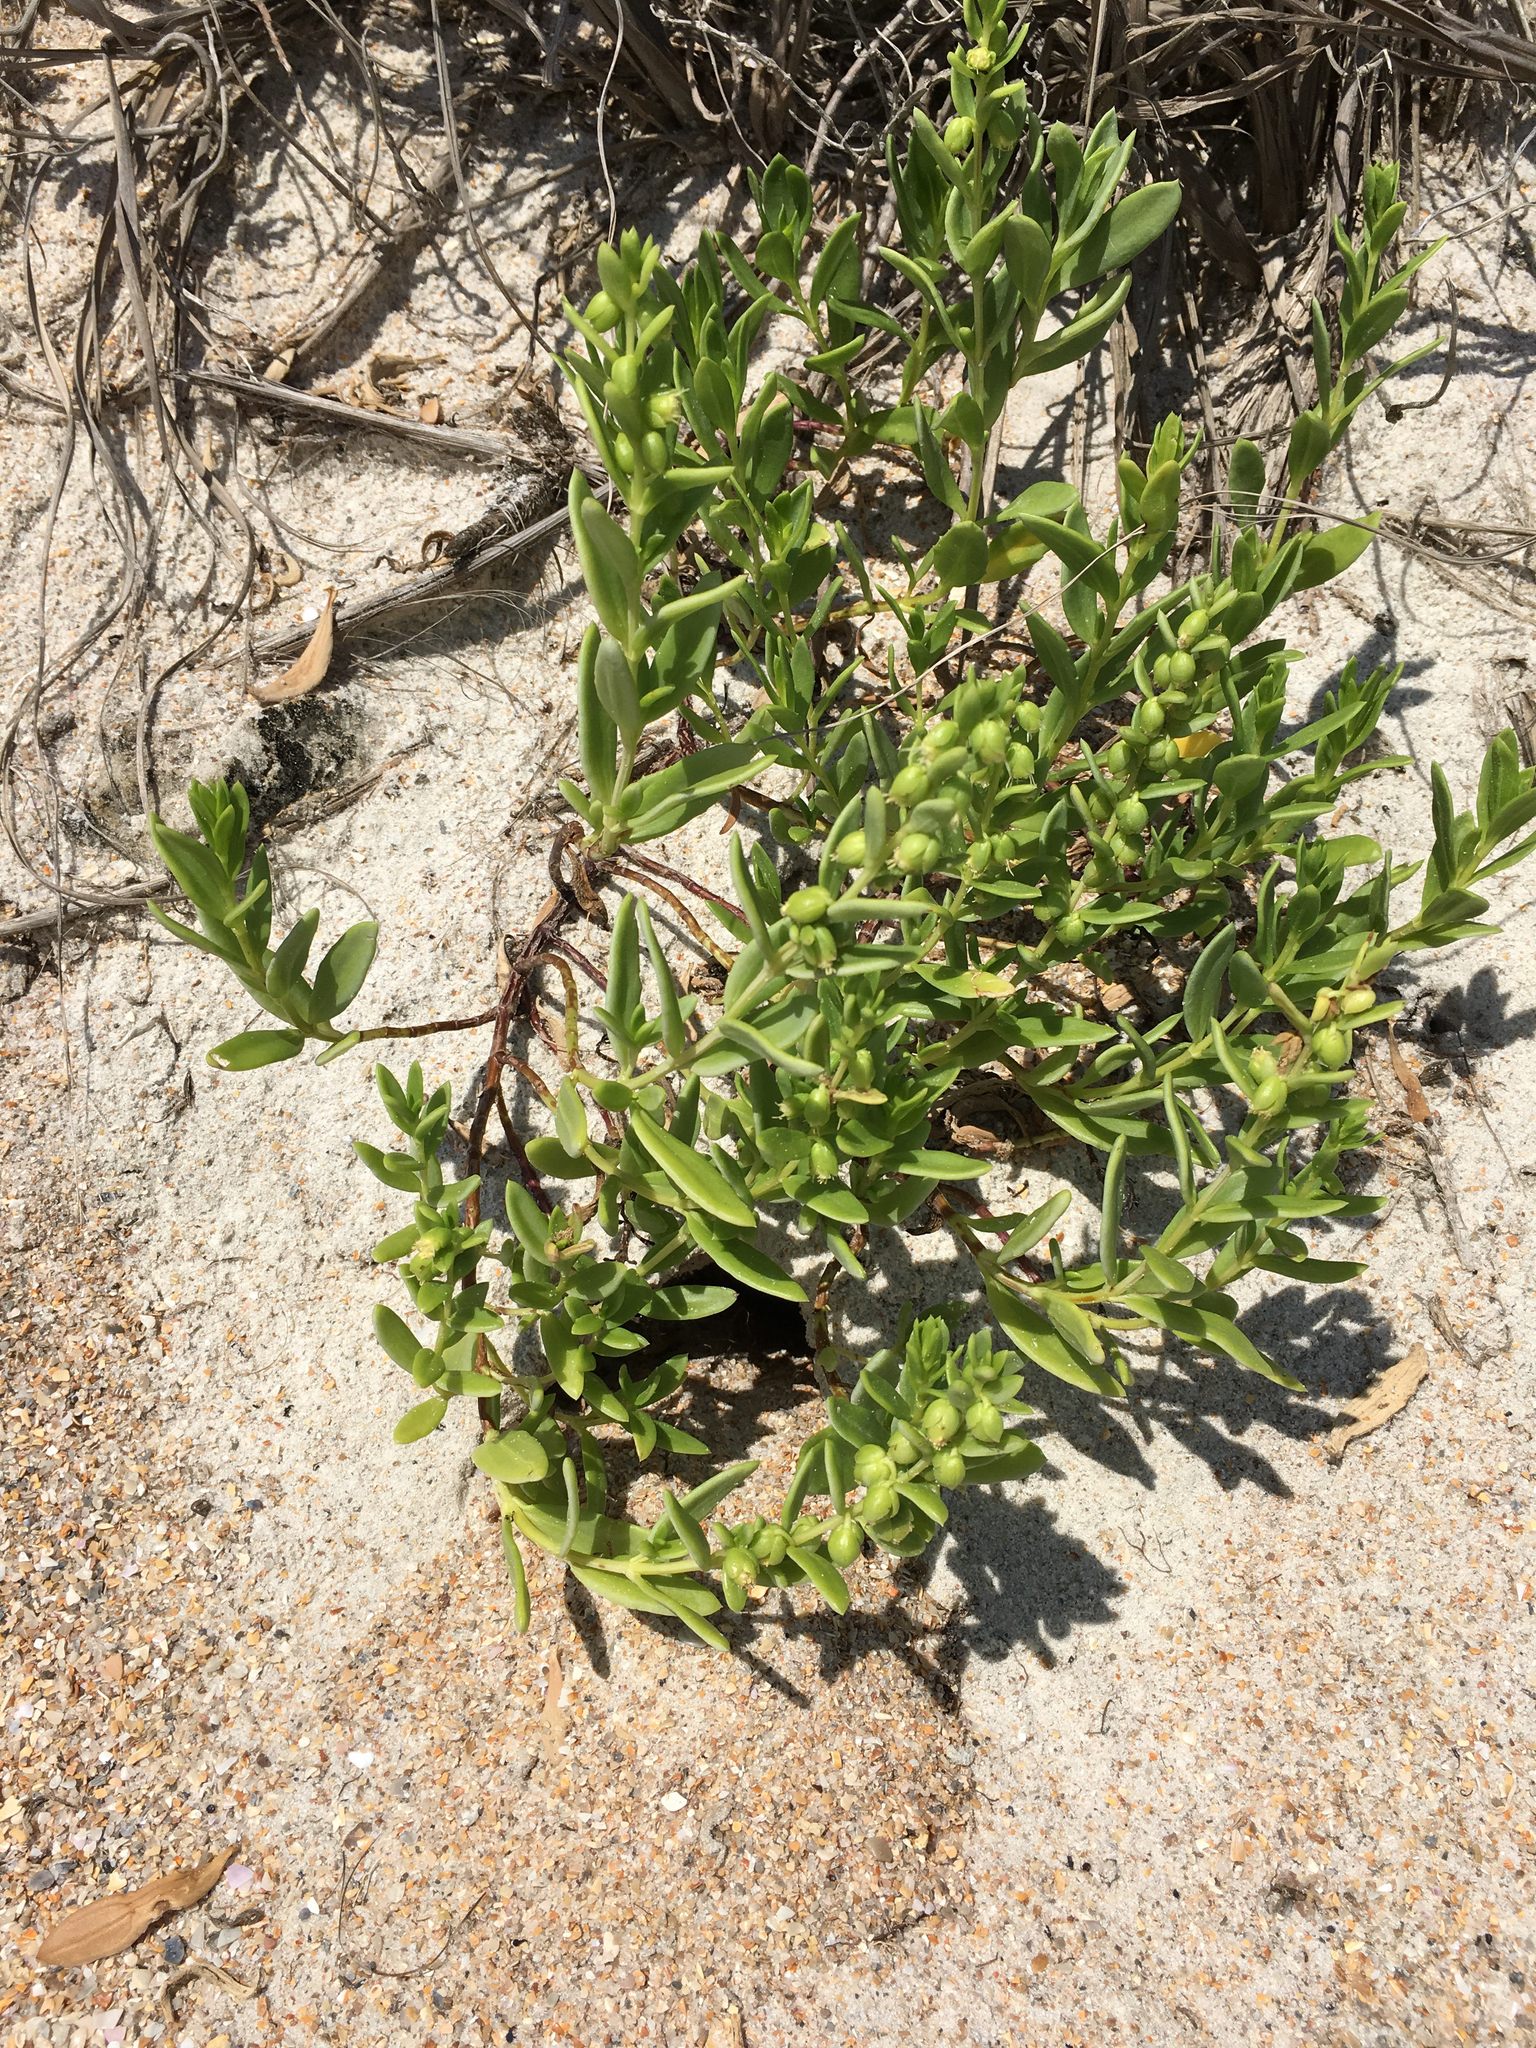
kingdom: Plantae
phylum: Tracheophyta
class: Magnoliopsida
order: Asterales
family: Asteraceae
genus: Iva
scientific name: Iva imbricata
